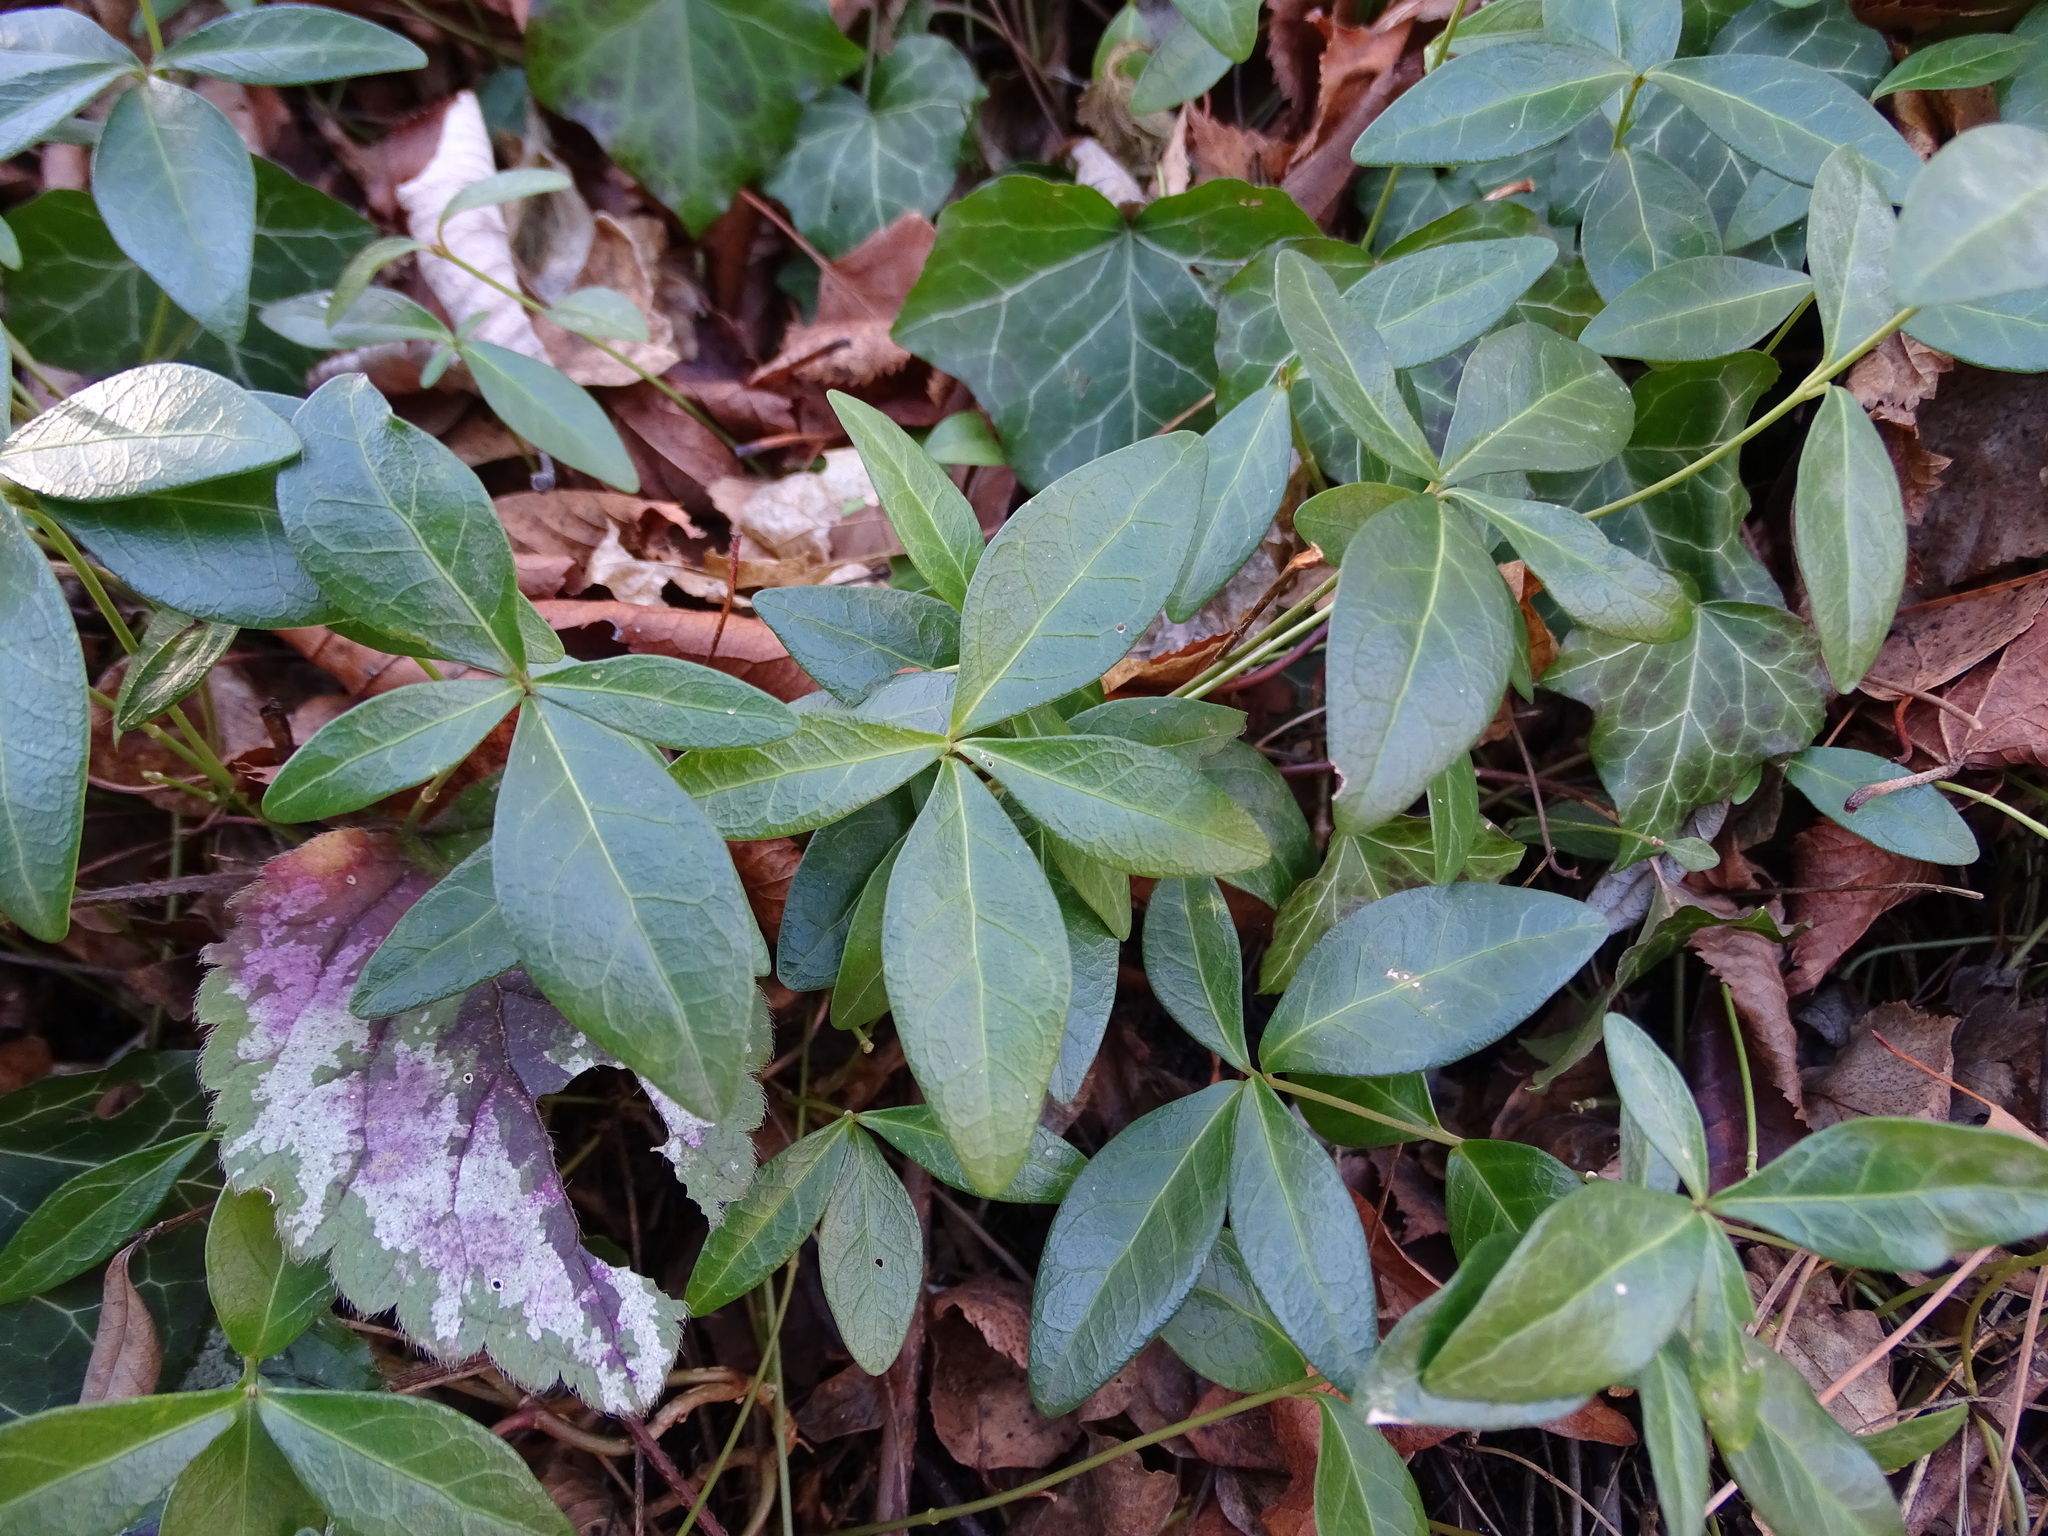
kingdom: Plantae
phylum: Tracheophyta
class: Magnoliopsida
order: Gentianales
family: Apocynaceae
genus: Vinca
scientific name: Vinca minor
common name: Lesser periwinkle
